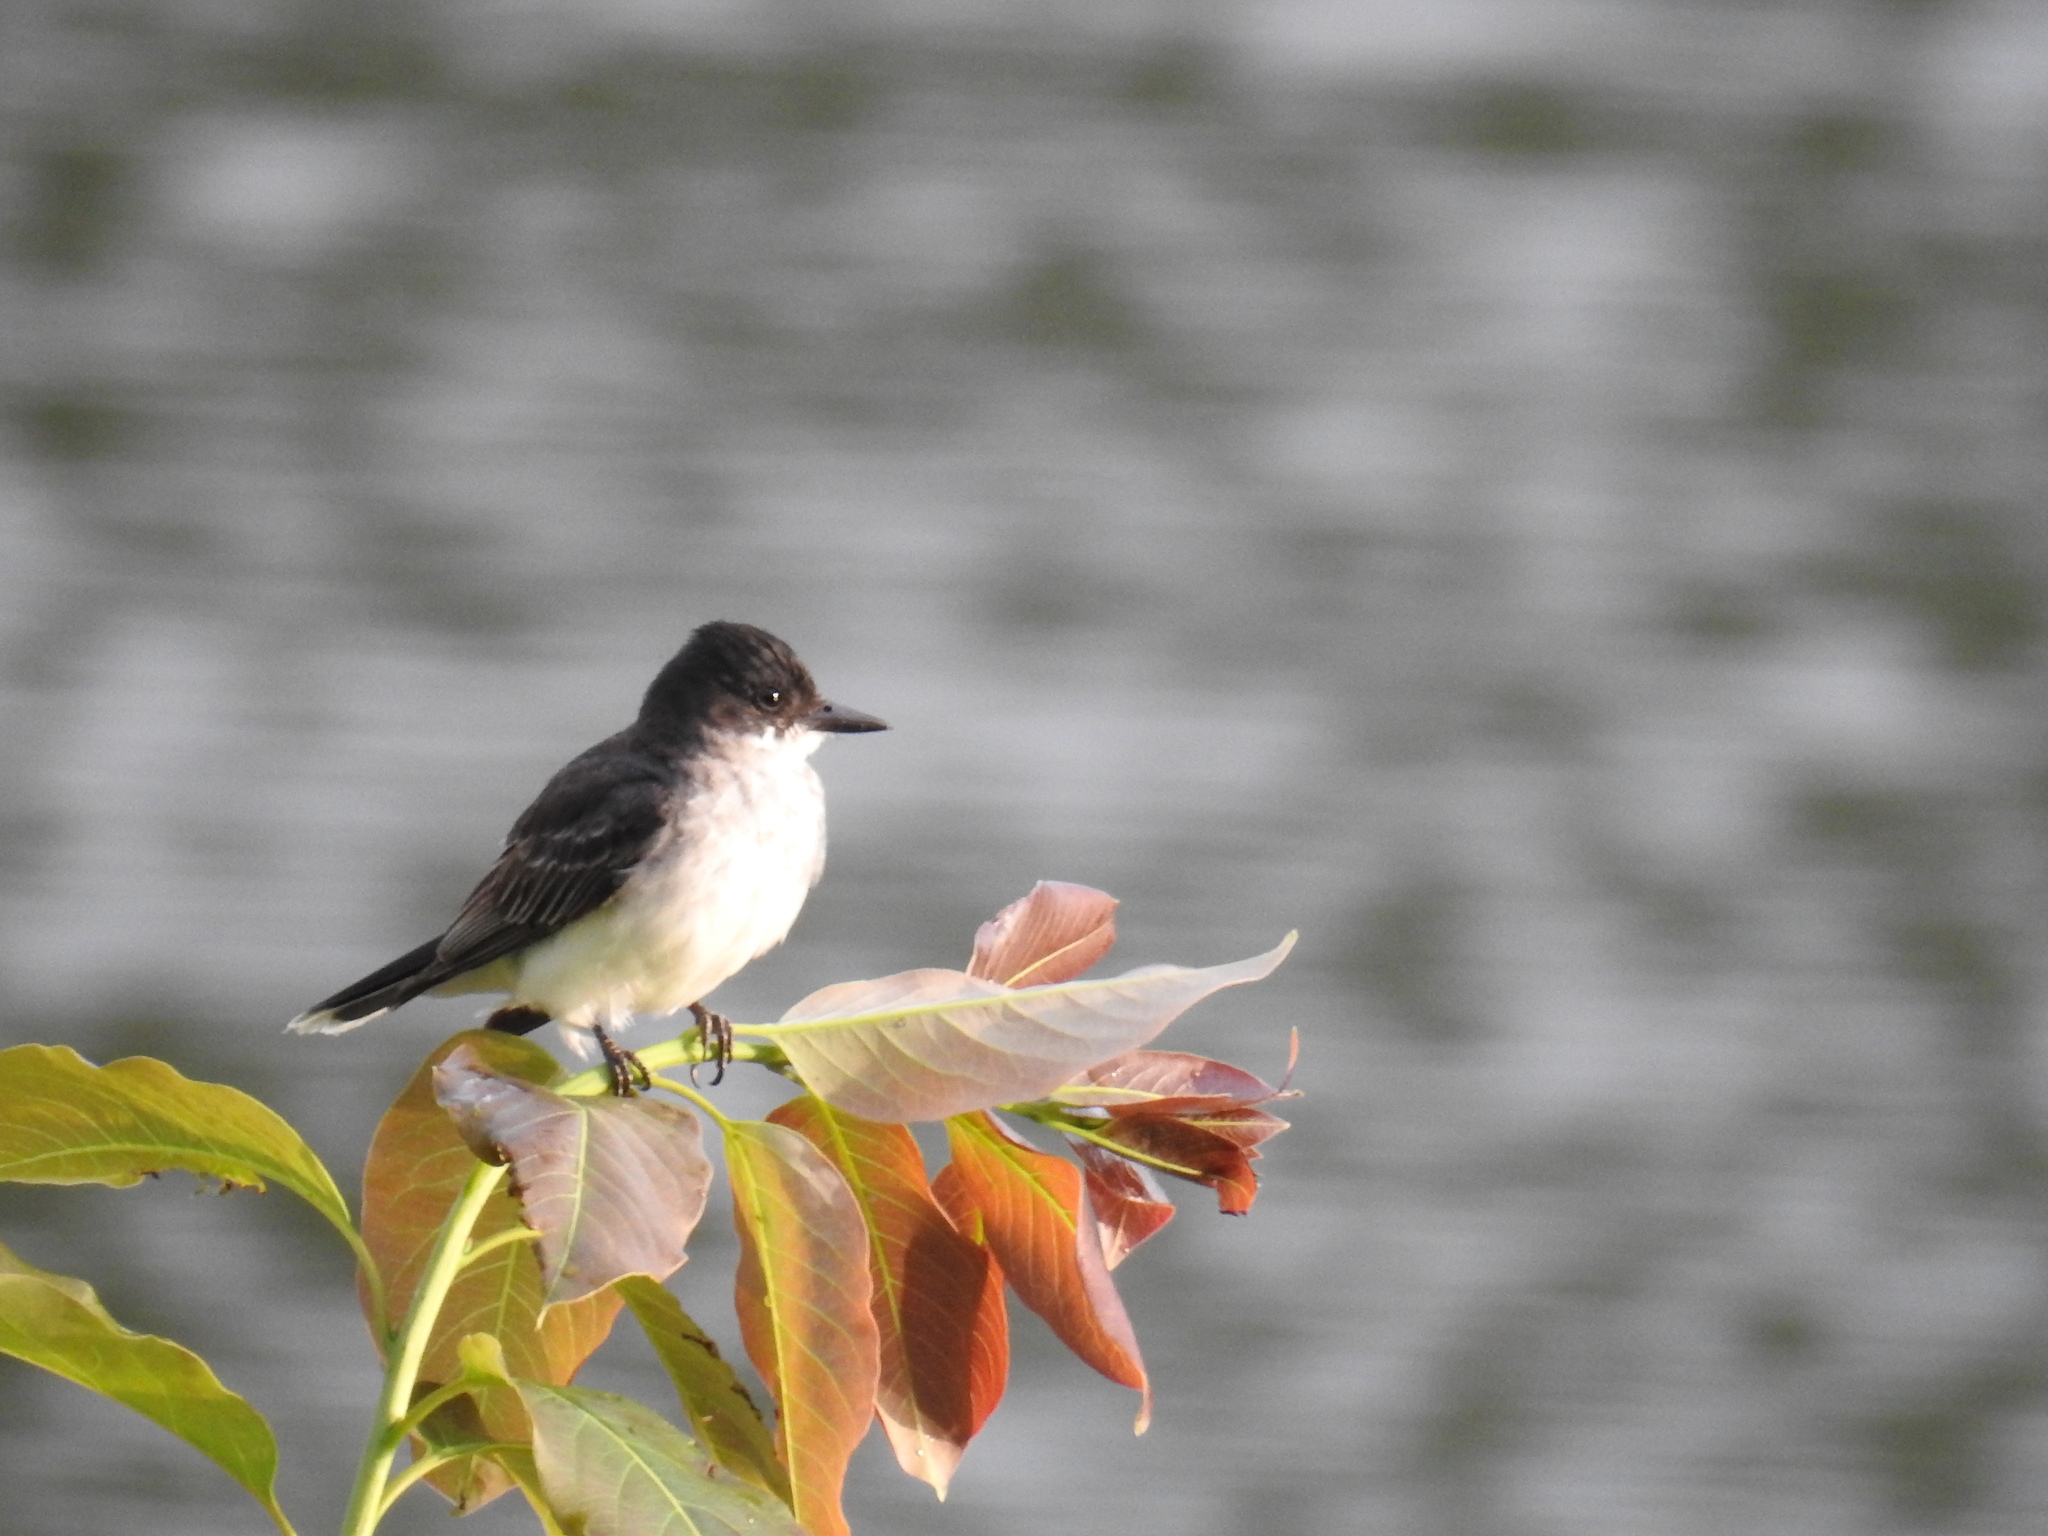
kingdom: Animalia
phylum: Chordata
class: Aves
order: Passeriformes
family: Tyrannidae
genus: Tyrannus
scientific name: Tyrannus tyrannus
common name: Eastern kingbird
